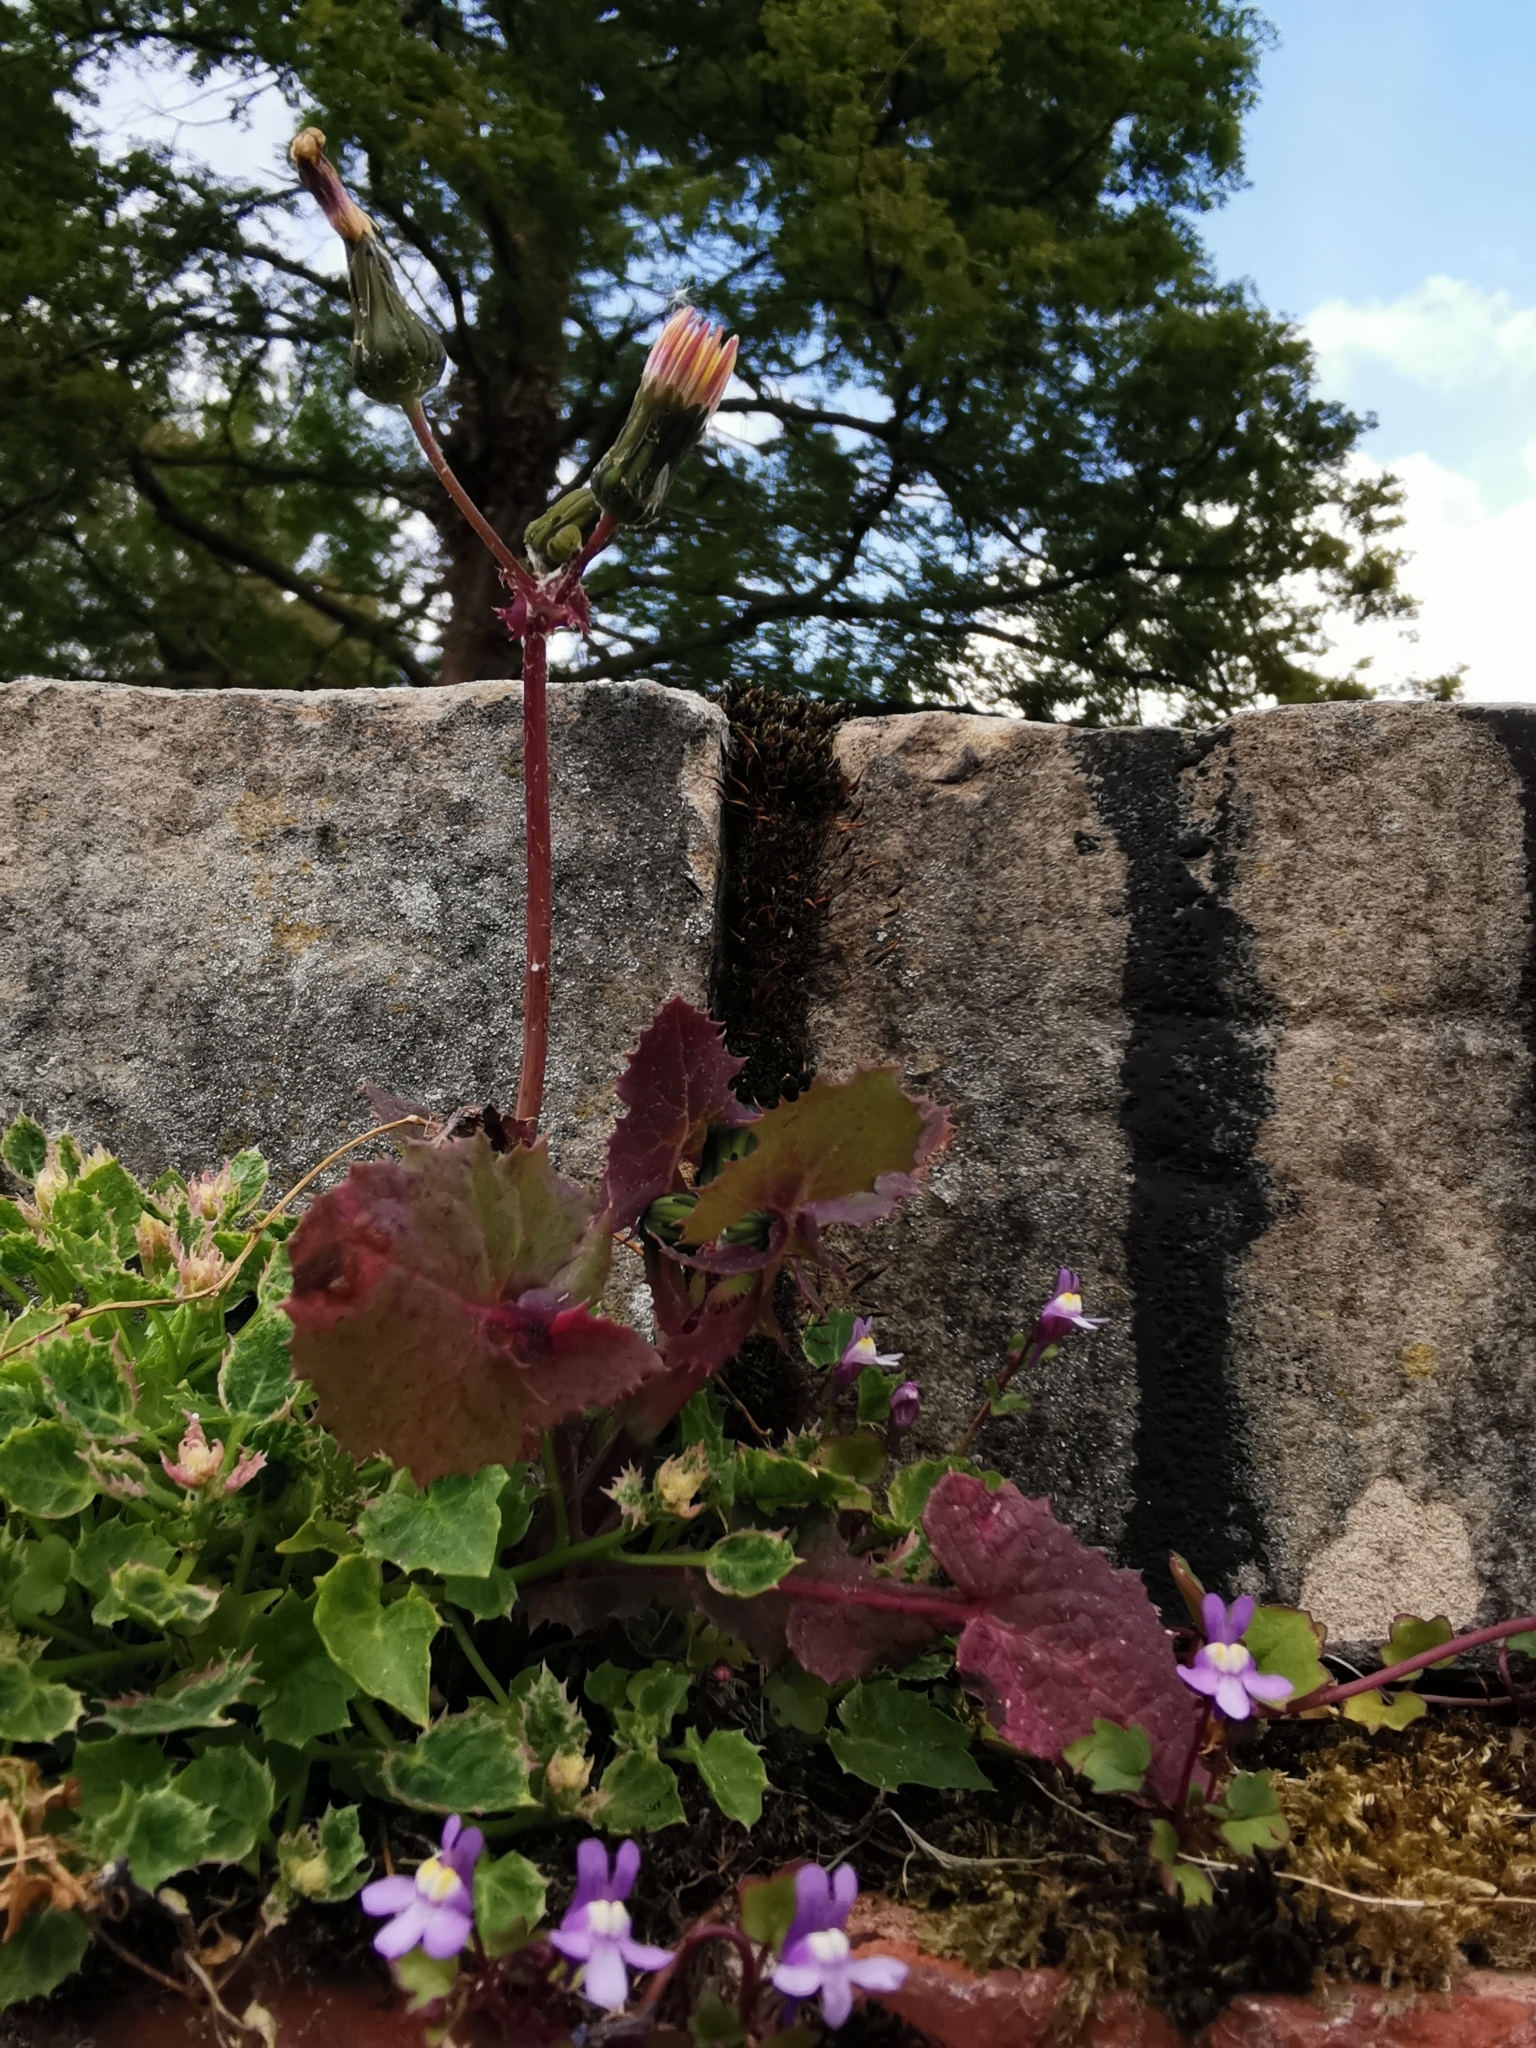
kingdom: Plantae
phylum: Tracheophyta
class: Magnoliopsida
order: Asterales
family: Asteraceae
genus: Sonchus
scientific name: Sonchus oleraceus
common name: Common sowthistle
